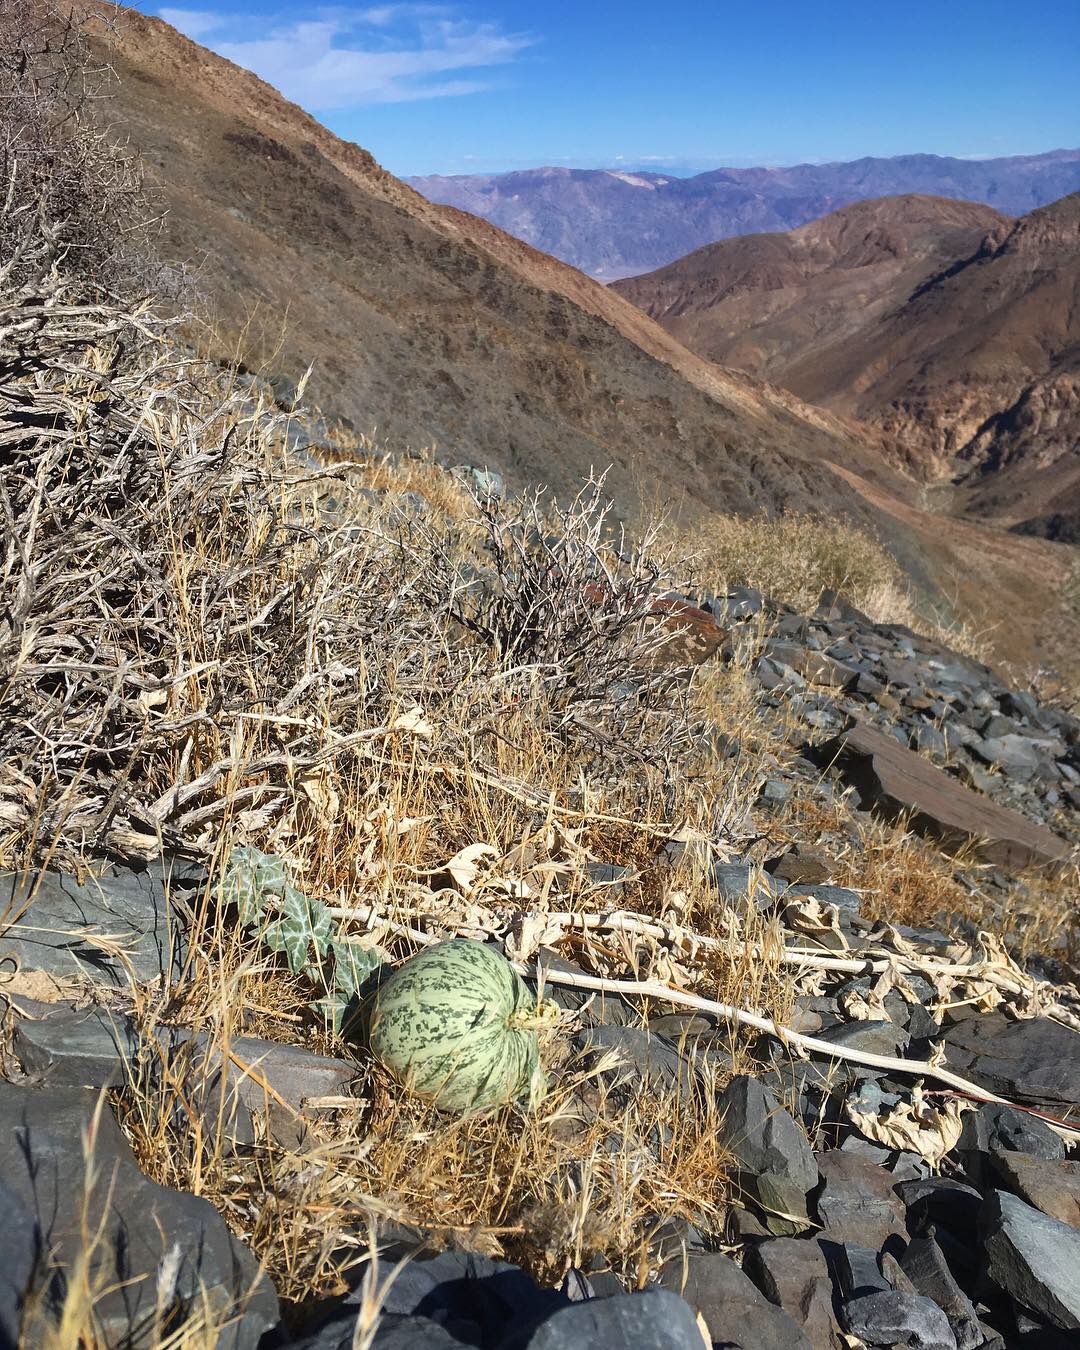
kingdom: Plantae
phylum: Tracheophyta
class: Magnoliopsida
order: Cucurbitales
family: Cucurbitaceae
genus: Cucurbita
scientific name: Cucurbita palmata
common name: Coyote-melon
